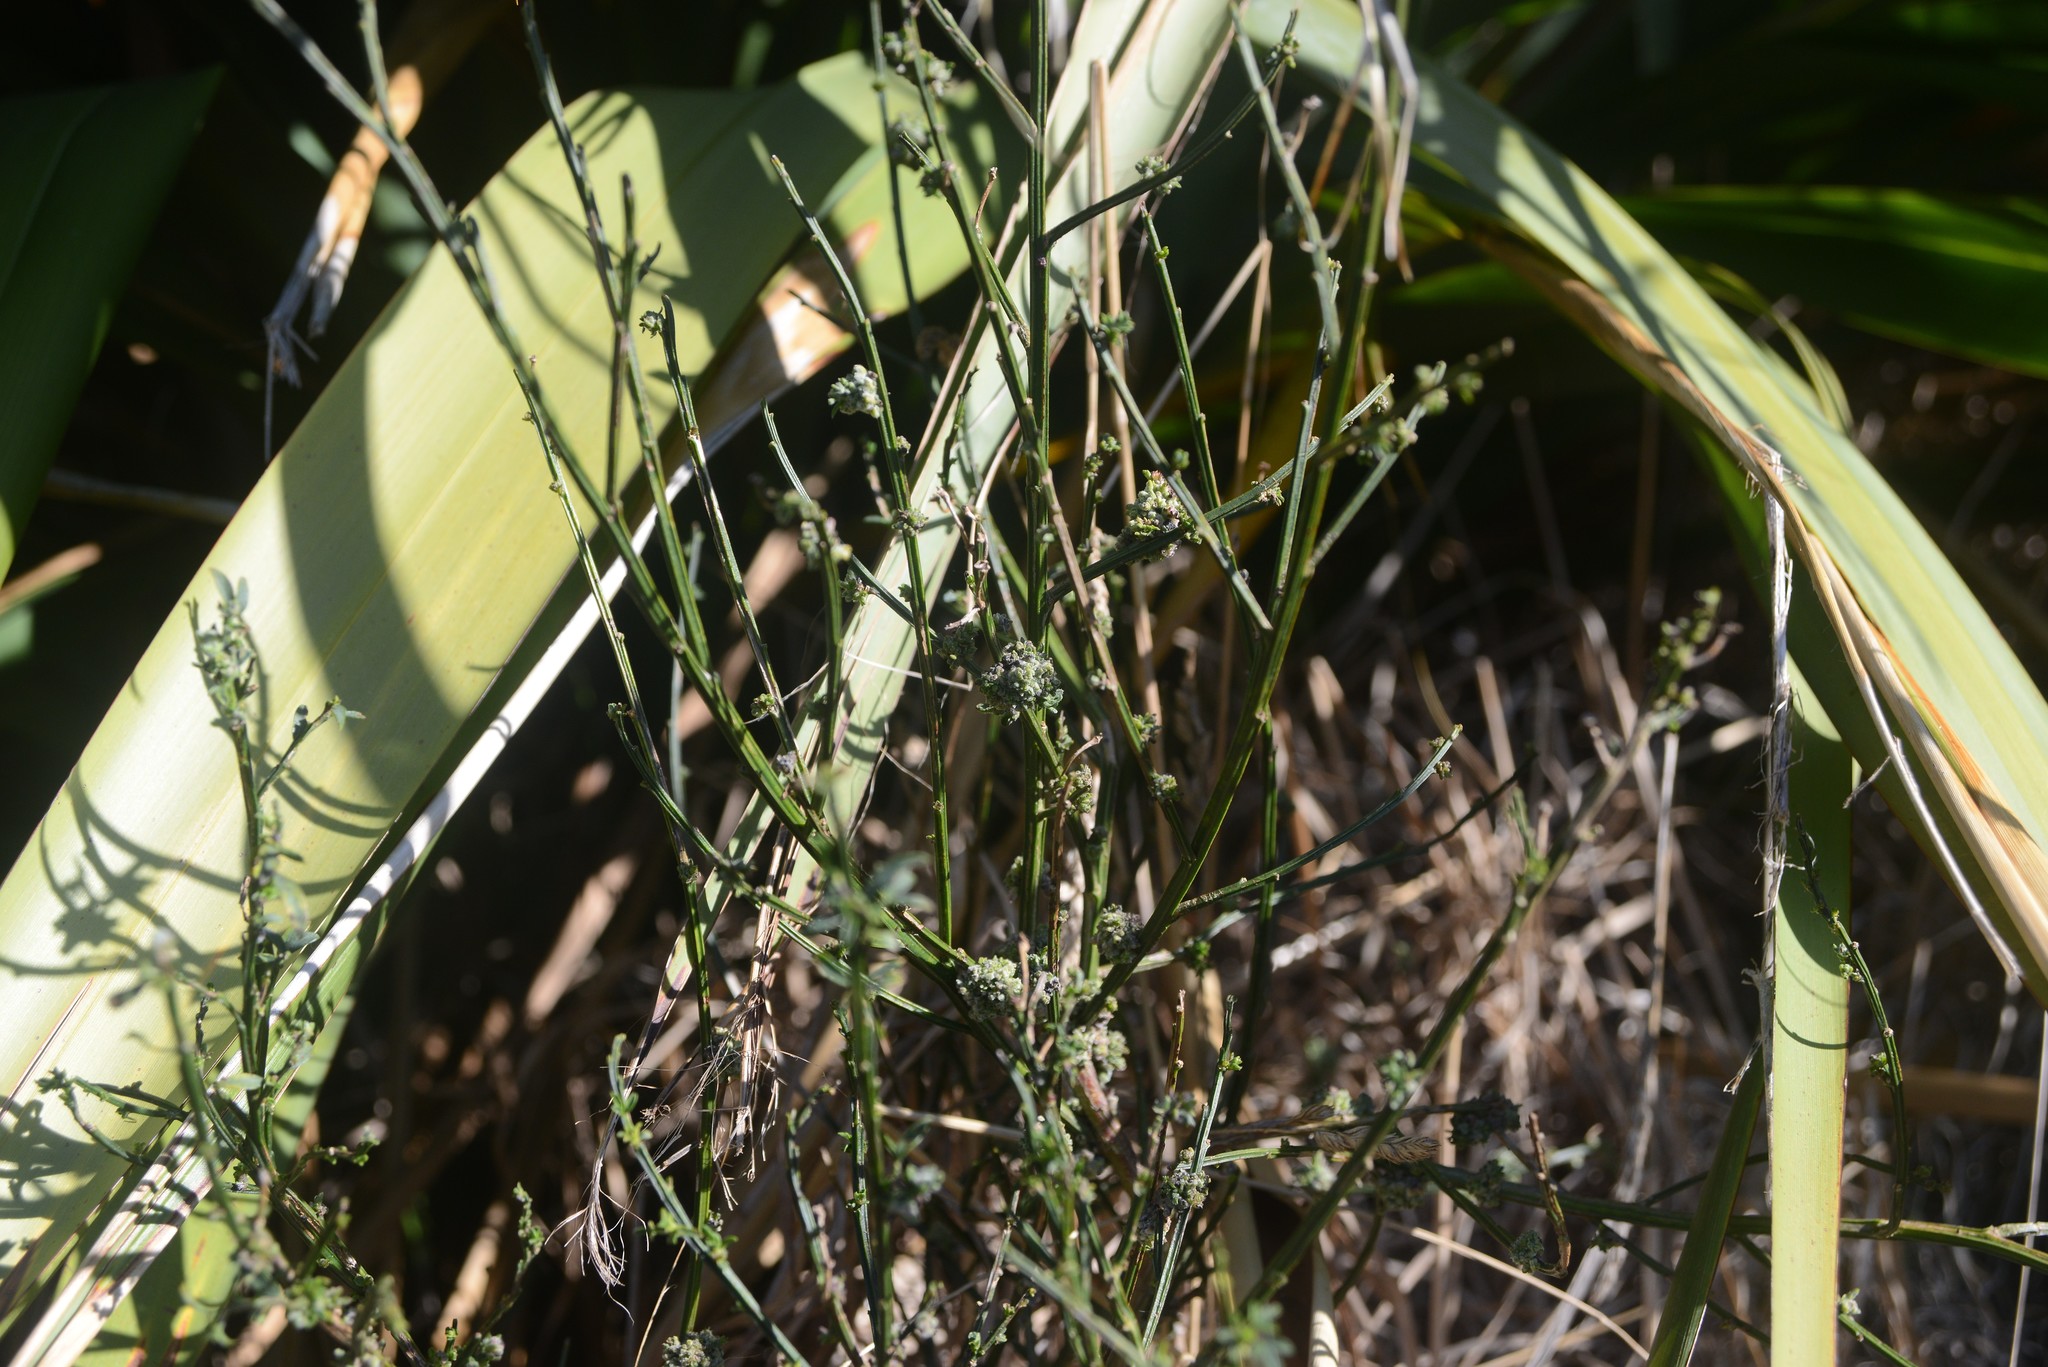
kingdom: Animalia
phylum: Arthropoda
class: Arachnida
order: Trombidiformes
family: Eriophyidae
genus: Aceria
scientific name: Aceria genistae
